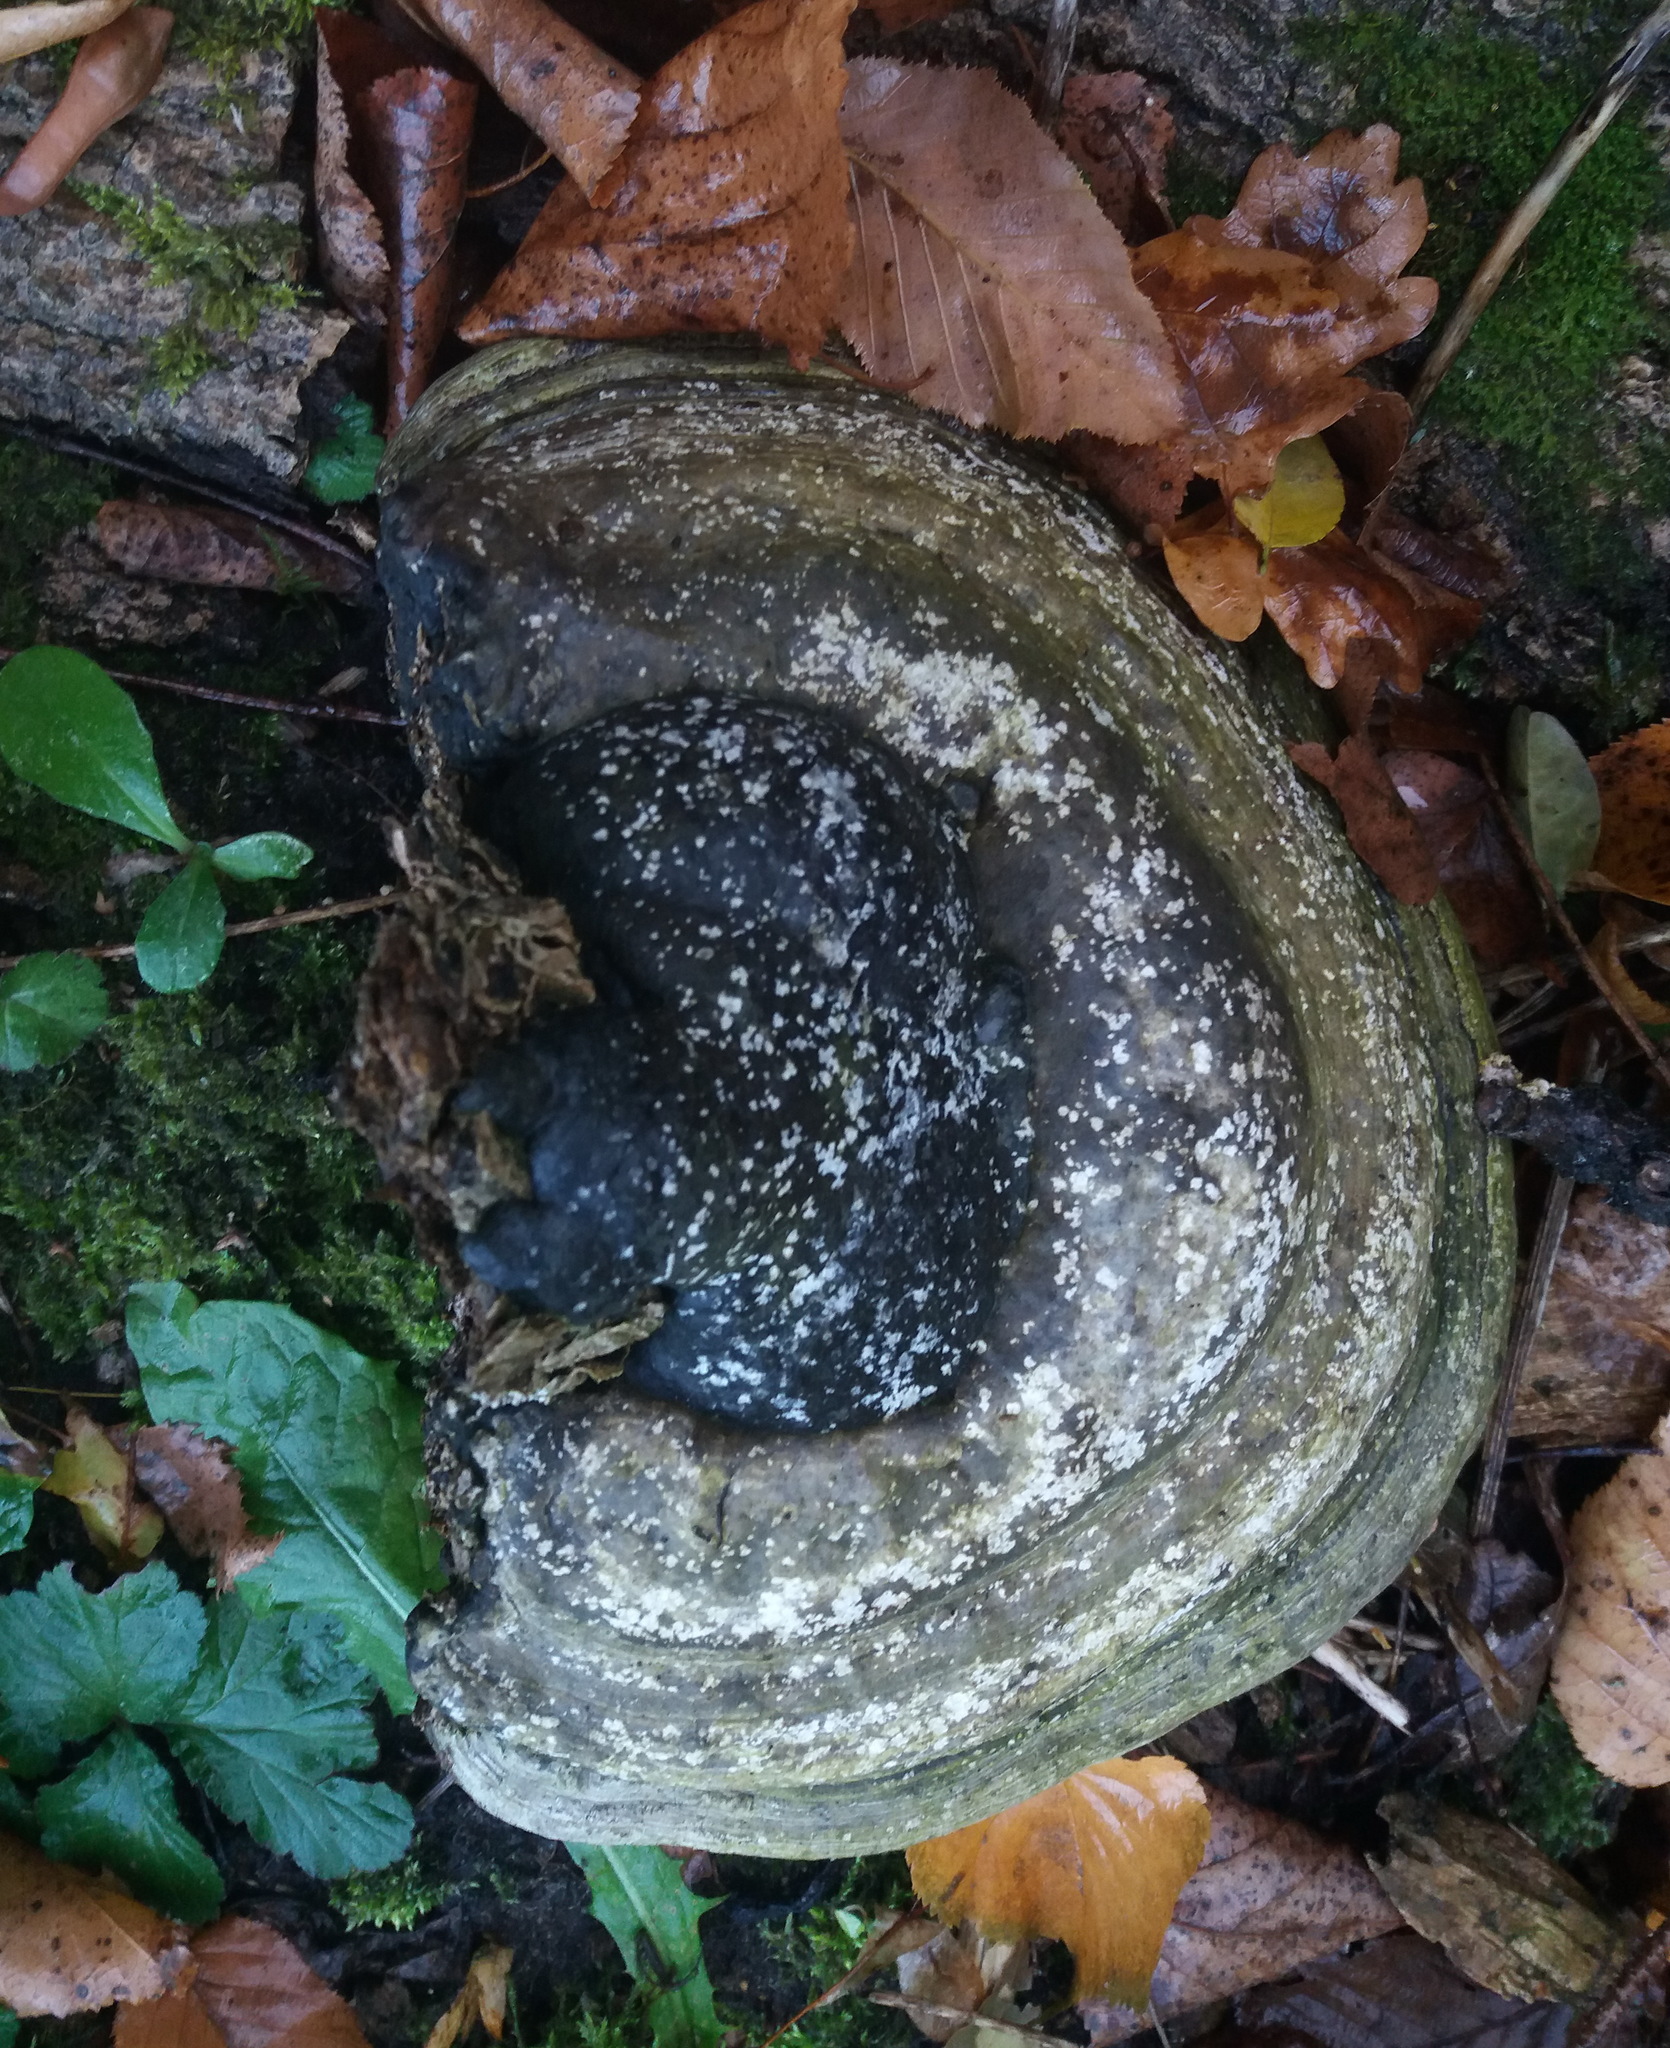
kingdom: Fungi
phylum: Basidiomycota
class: Agaricomycetes
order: Polyporales
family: Polyporaceae
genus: Fomes
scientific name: Fomes fomentarius
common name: Hoof fungus
